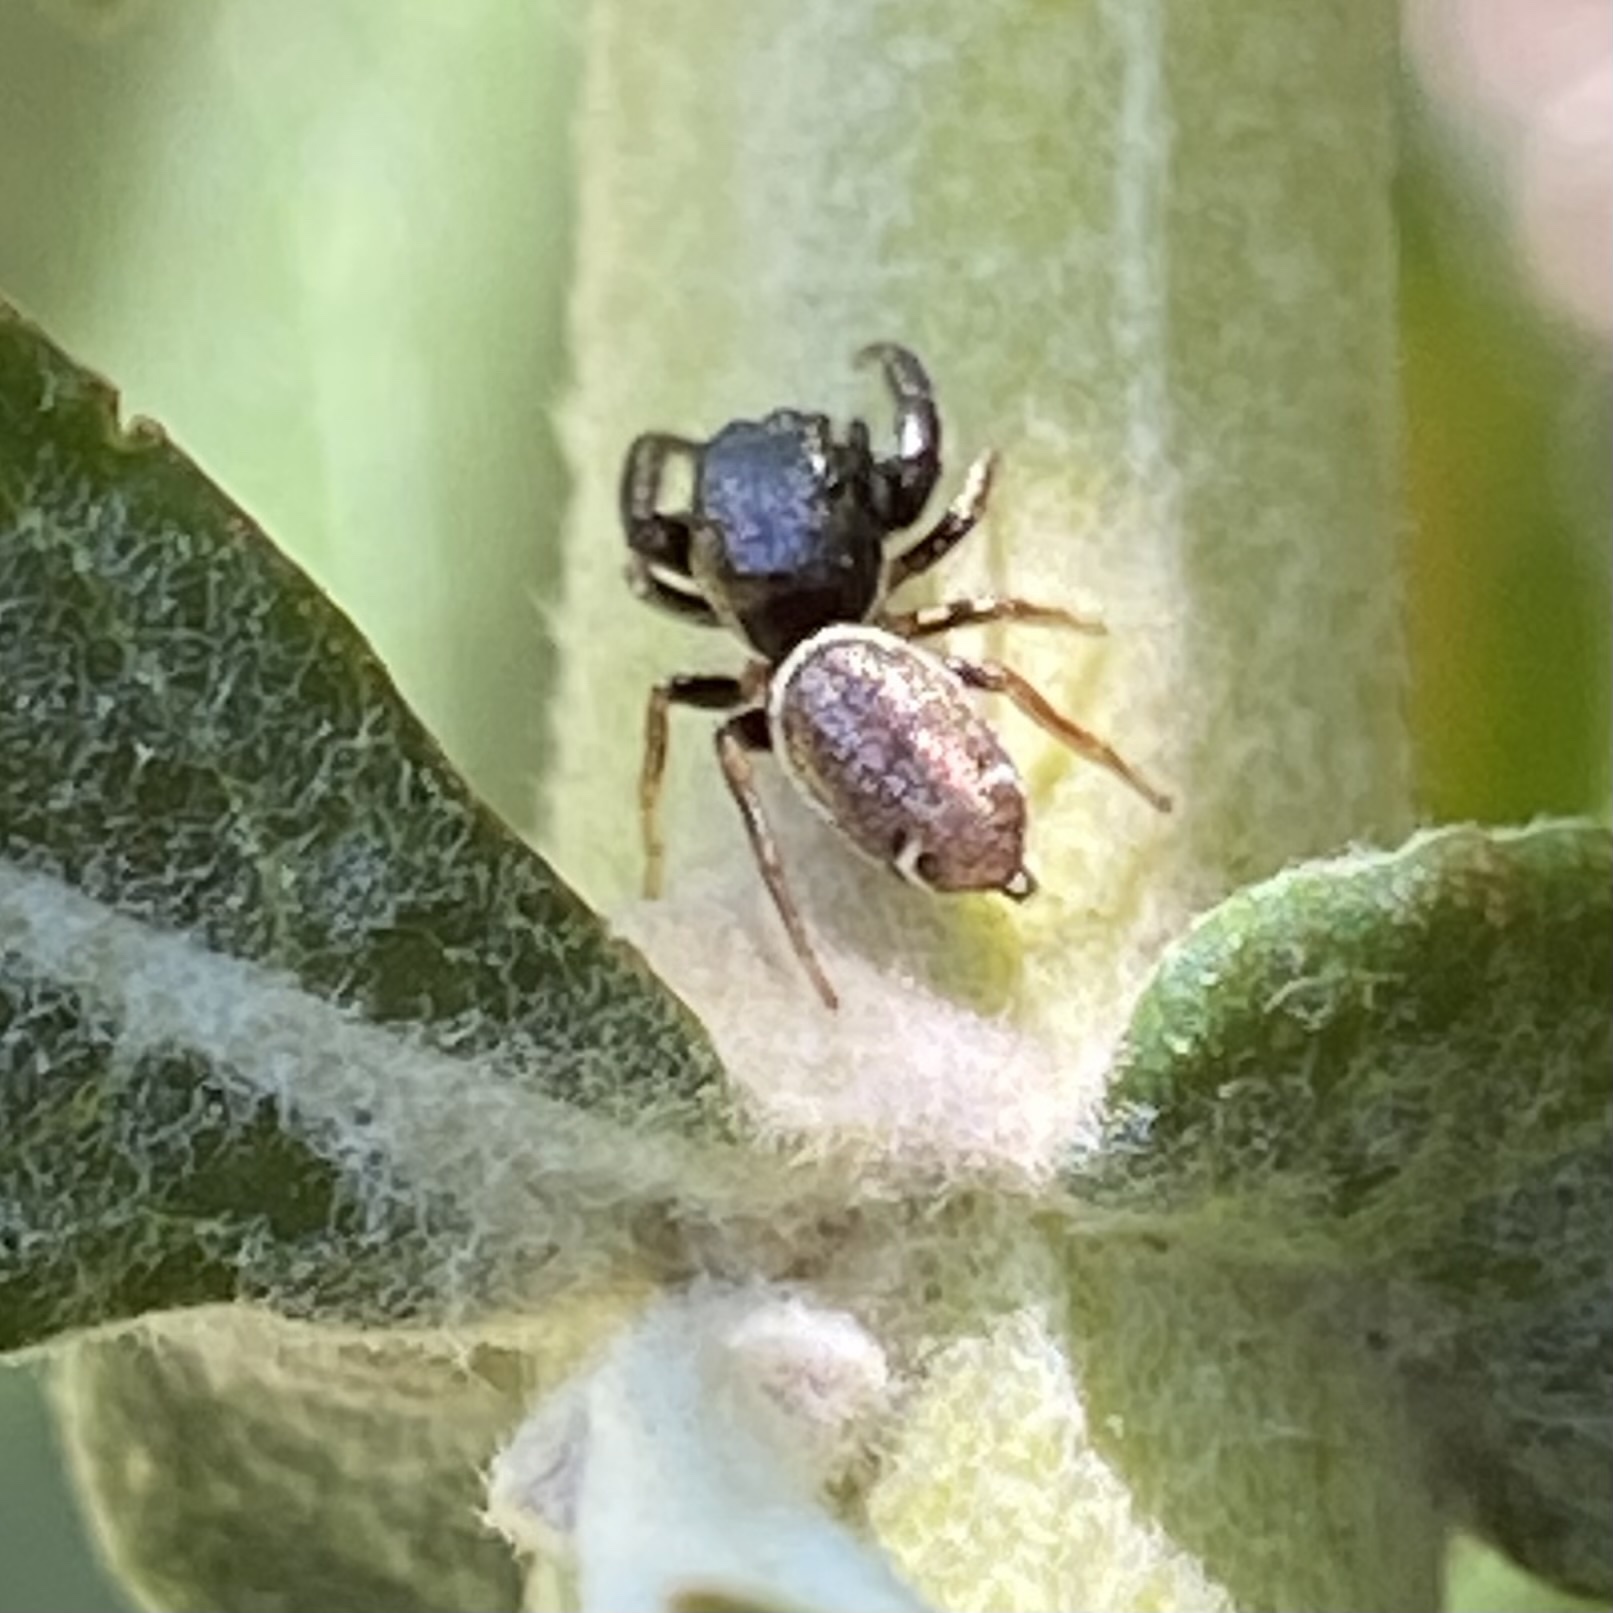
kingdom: Animalia
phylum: Arthropoda
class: Arachnida
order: Araneae
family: Salticidae
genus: Sassacus
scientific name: Sassacus vitis
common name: Jumping spiders
